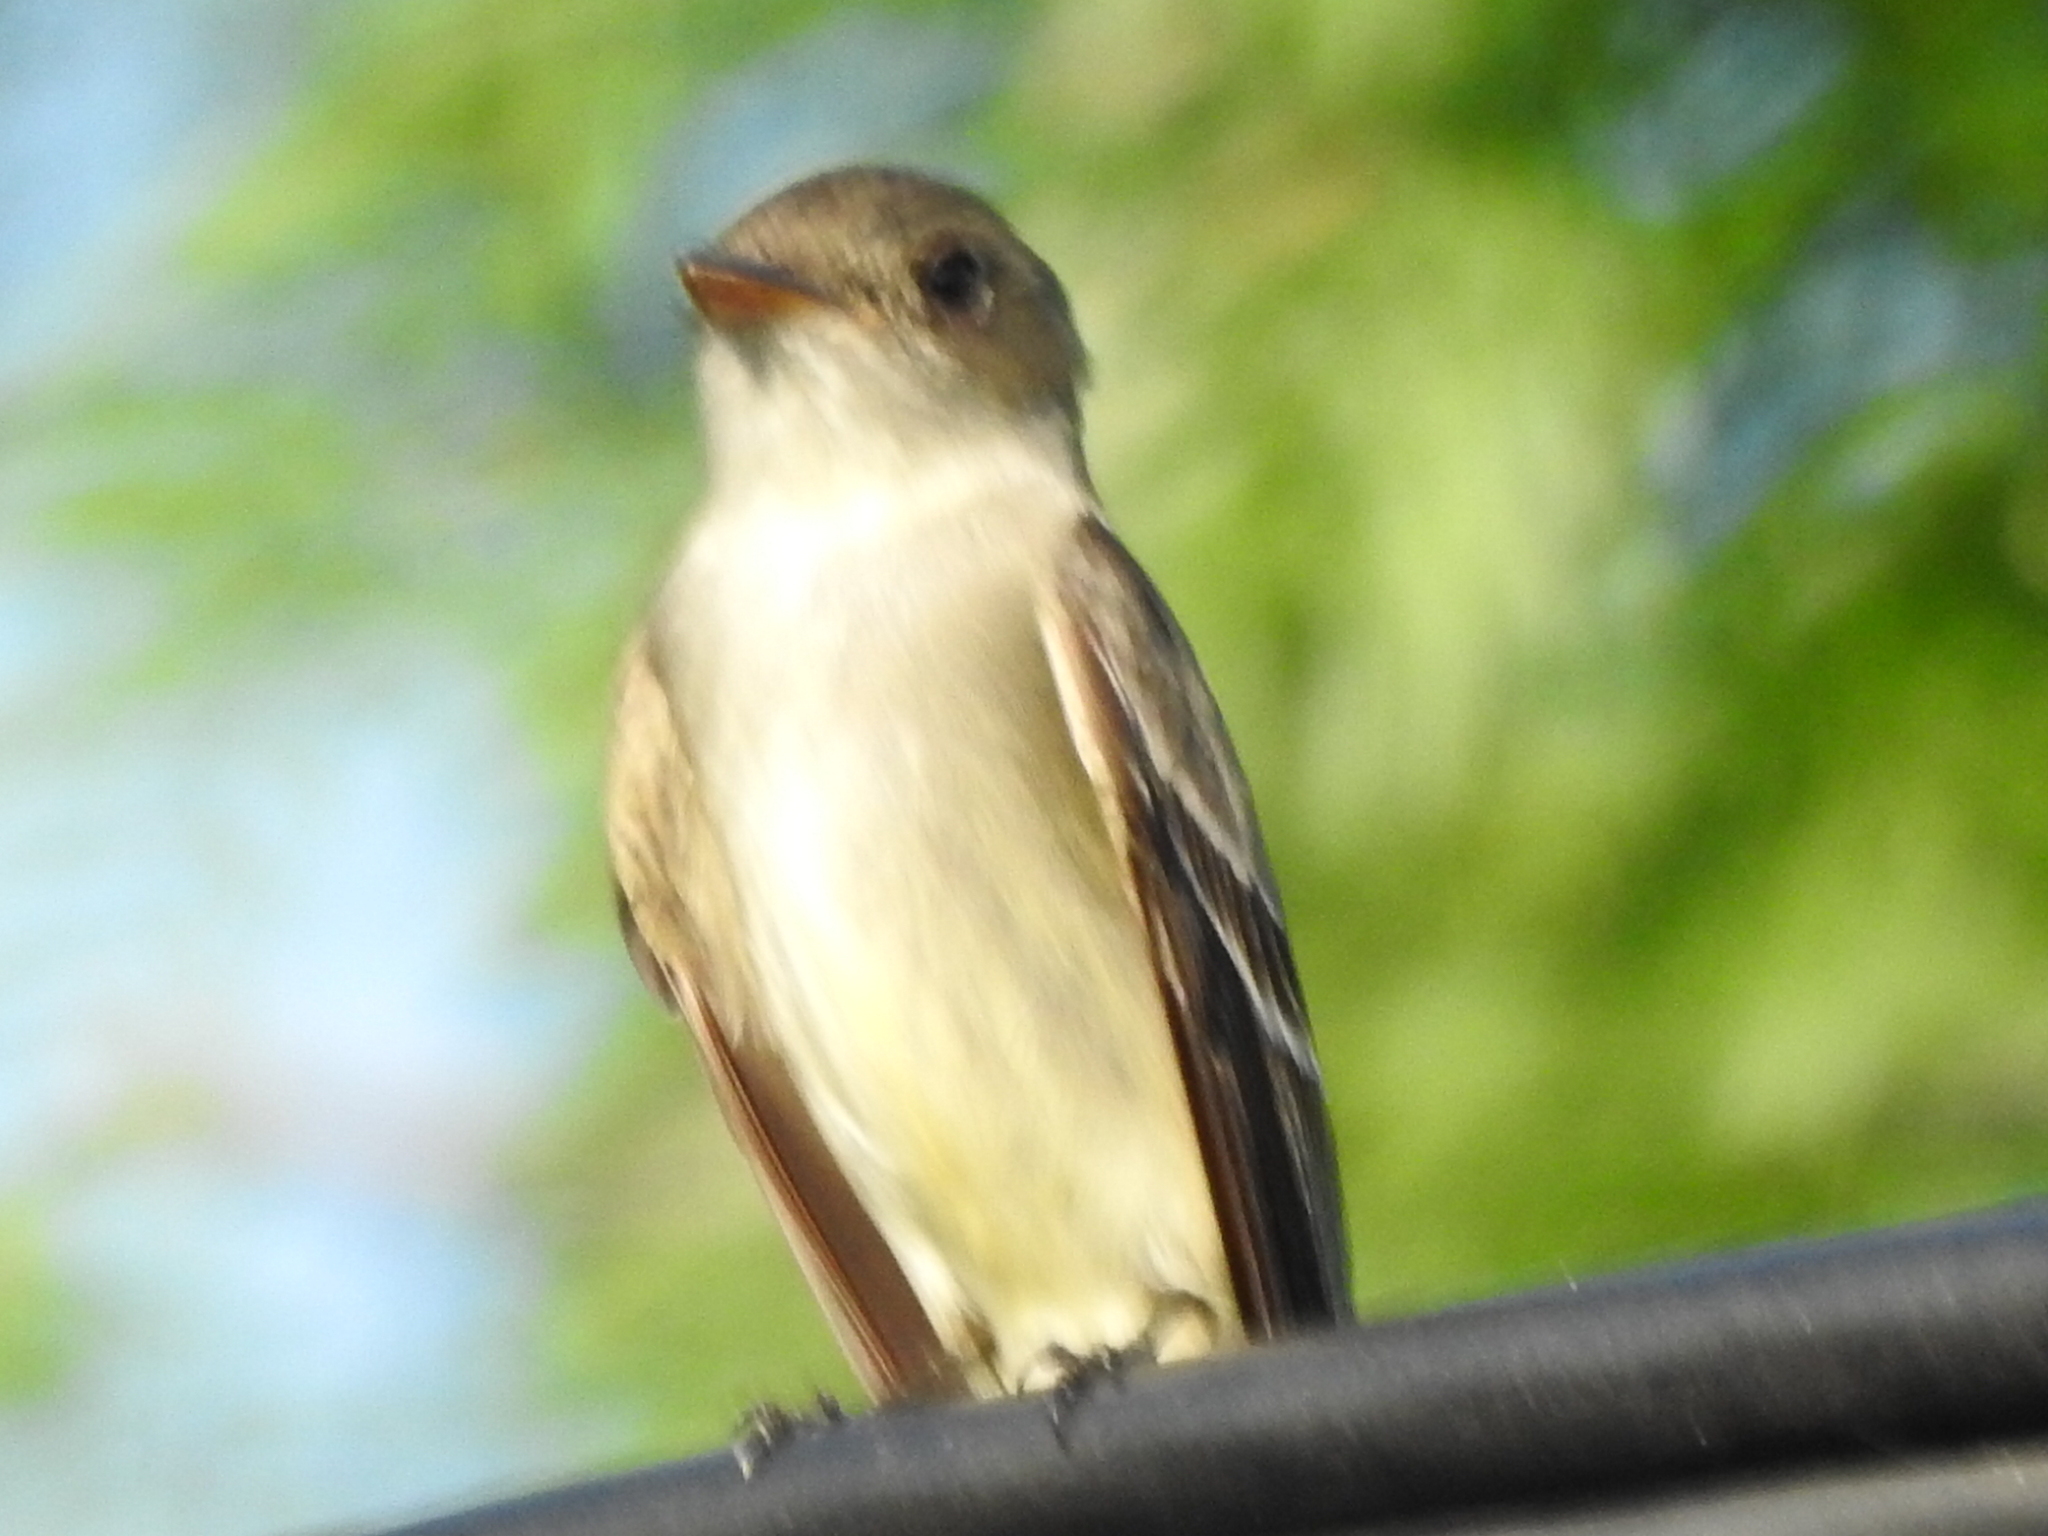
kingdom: Animalia
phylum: Chordata
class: Aves
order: Passeriformes
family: Tyrannidae
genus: Contopus
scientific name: Contopus virens
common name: Eastern wood-pewee
